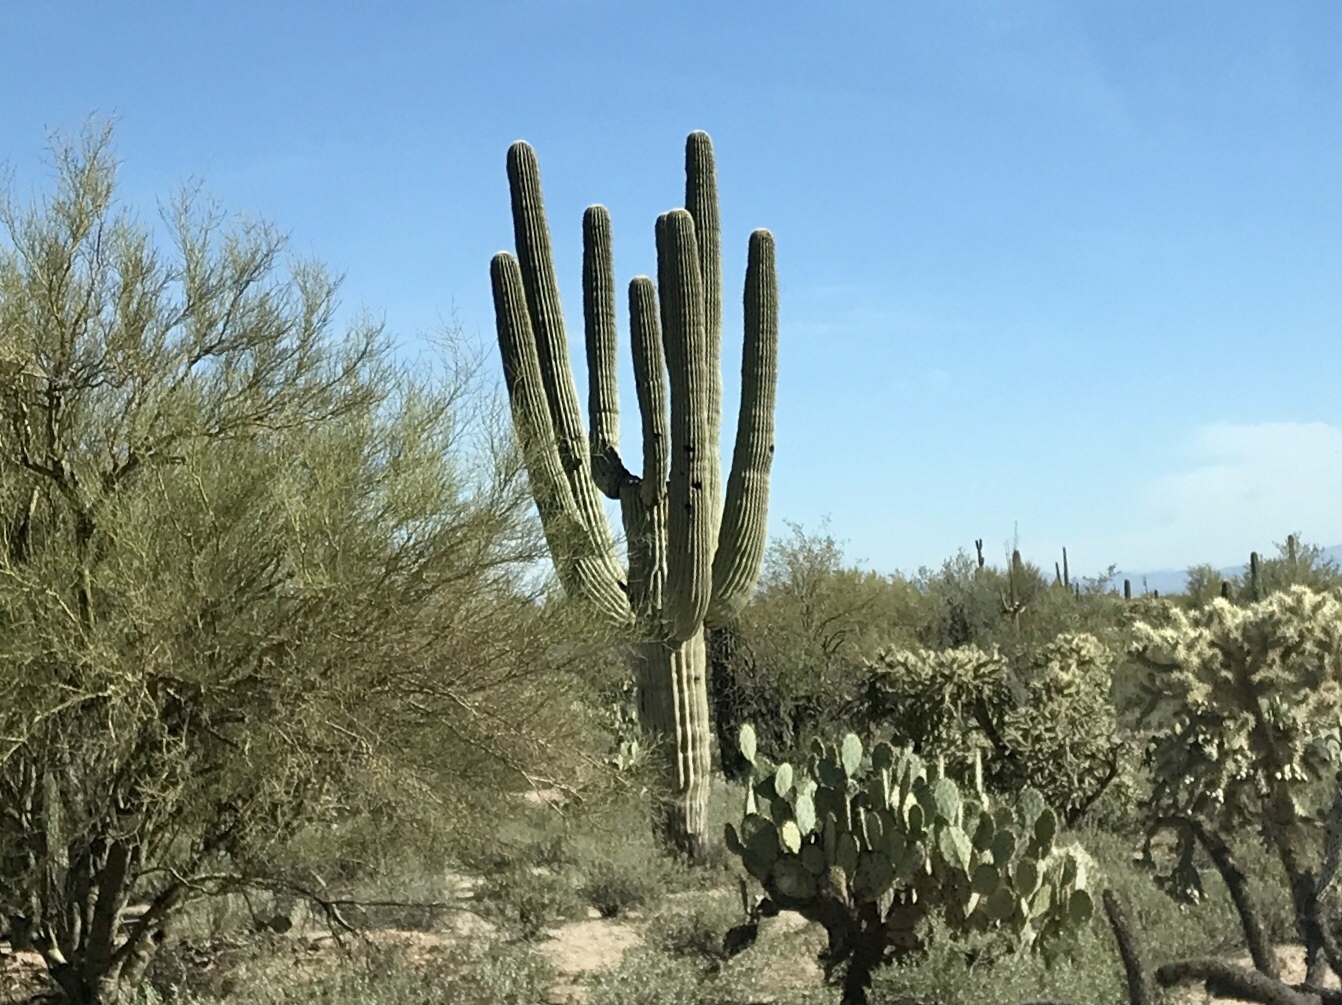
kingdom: Plantae
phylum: Tracheophyta
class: Magnoliopsida
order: Caryophyllales
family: Cactaceae
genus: Carnegiea
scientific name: Carnegiea gigantea
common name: Saguaro
